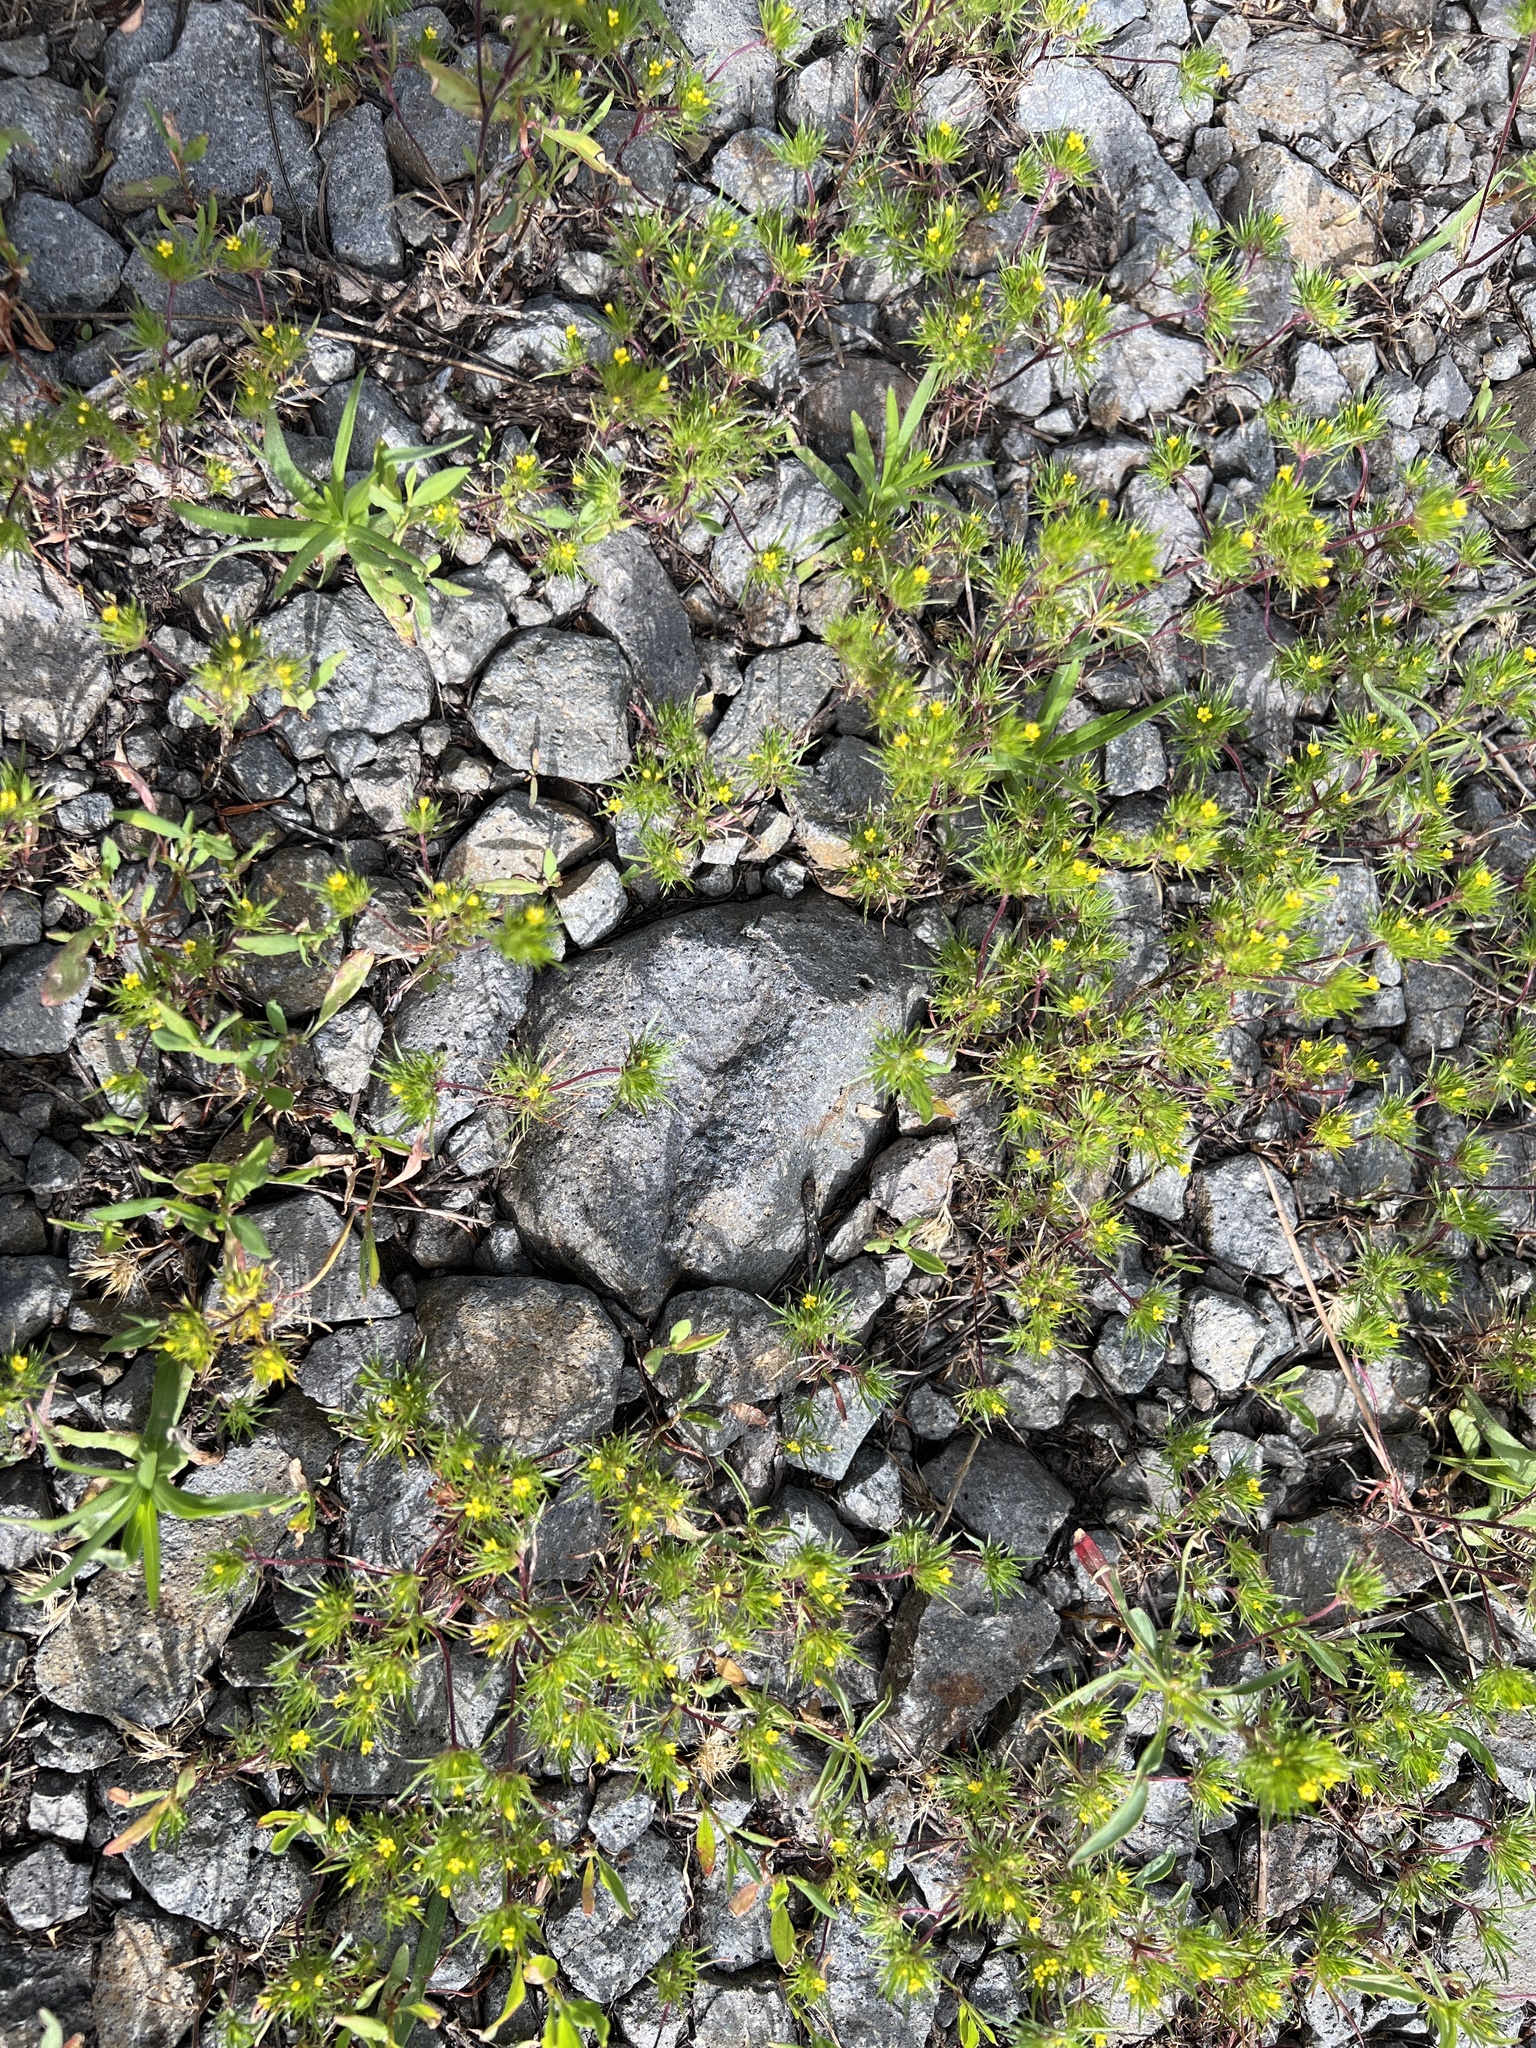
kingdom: Plantae
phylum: Tracheophyta
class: Magnoliopsida
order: Ericales
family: Polemoniaceae
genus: Navarretia
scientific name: Navarretia breweri
